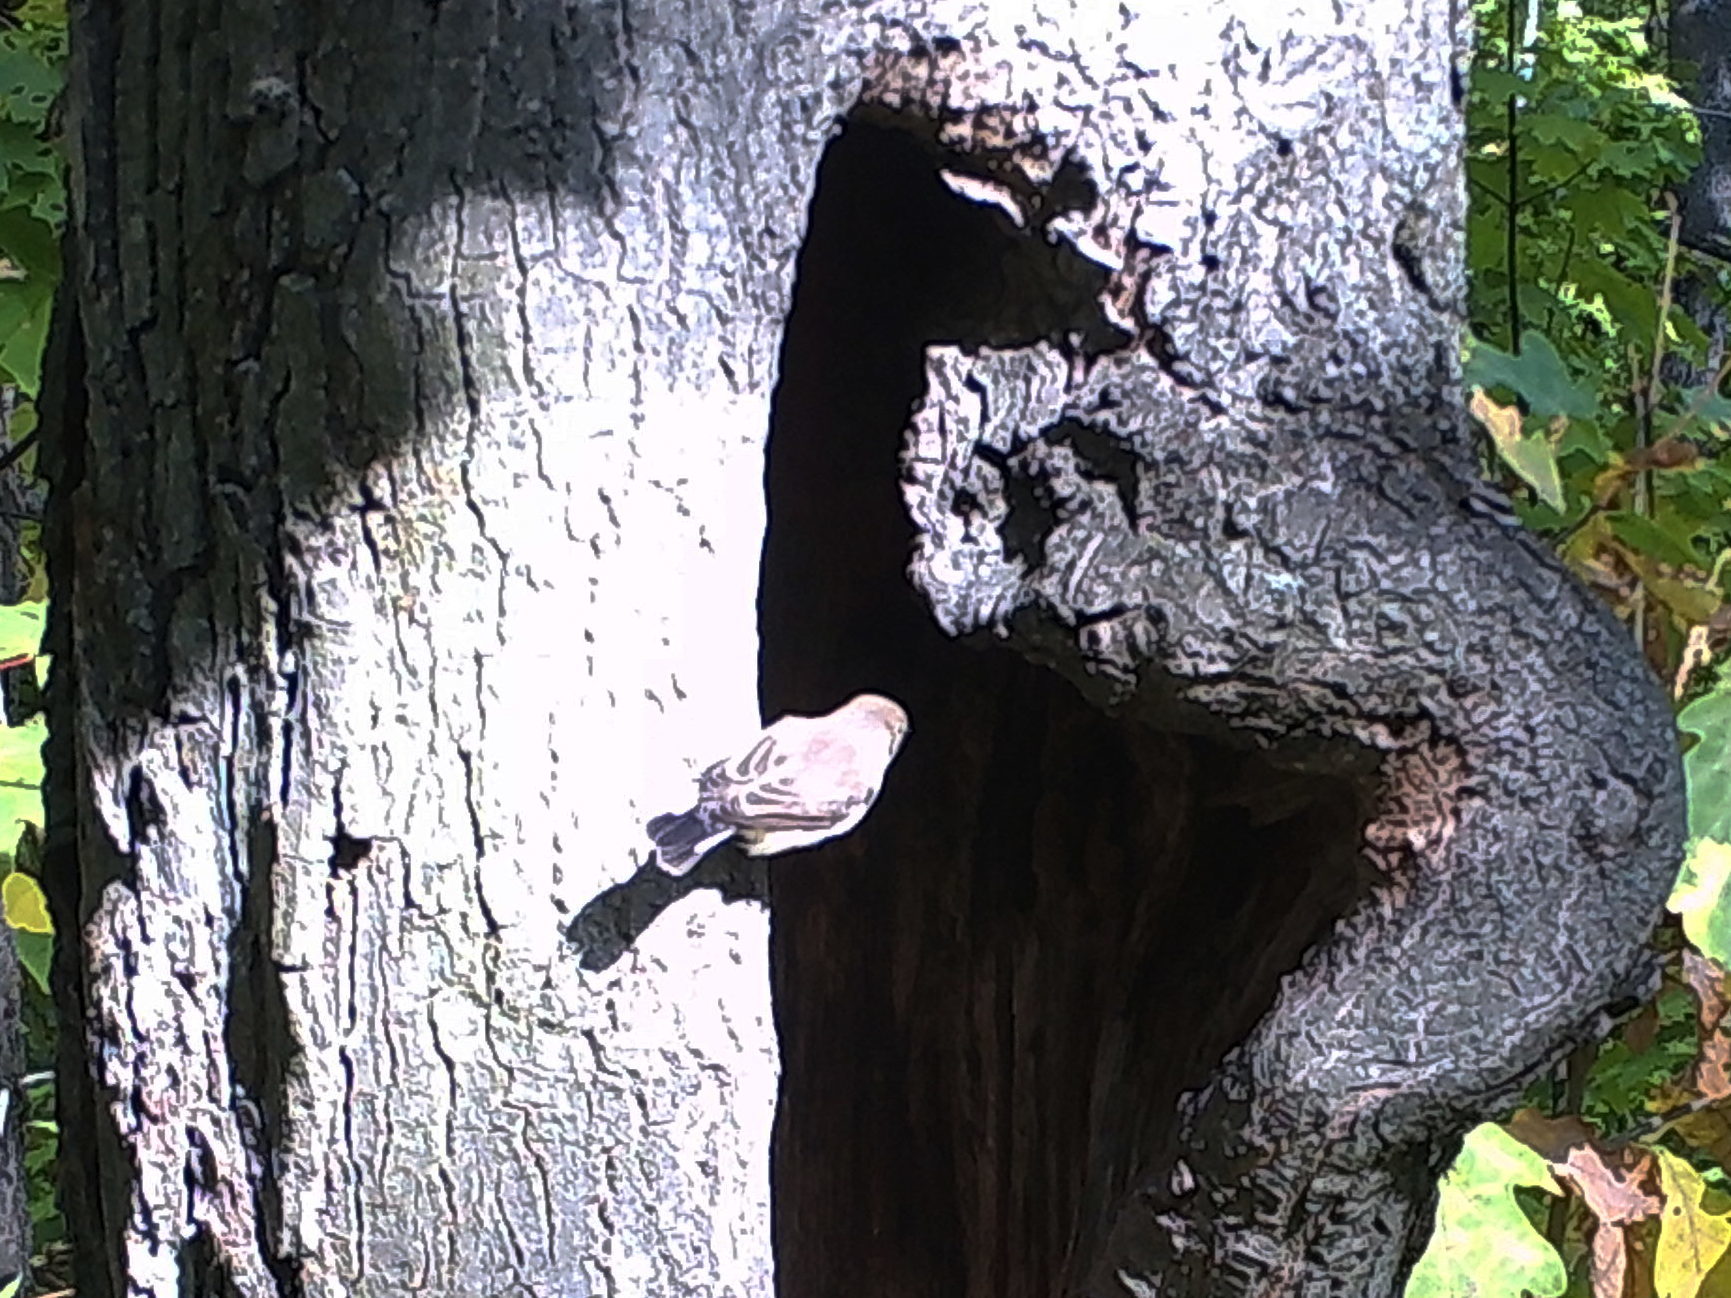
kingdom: Animalia
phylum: Chordata
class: Aves
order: Passeriformes
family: Muscicapidae
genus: Ficedula
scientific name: Ficedula parva
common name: Red-breasted flycatcher
